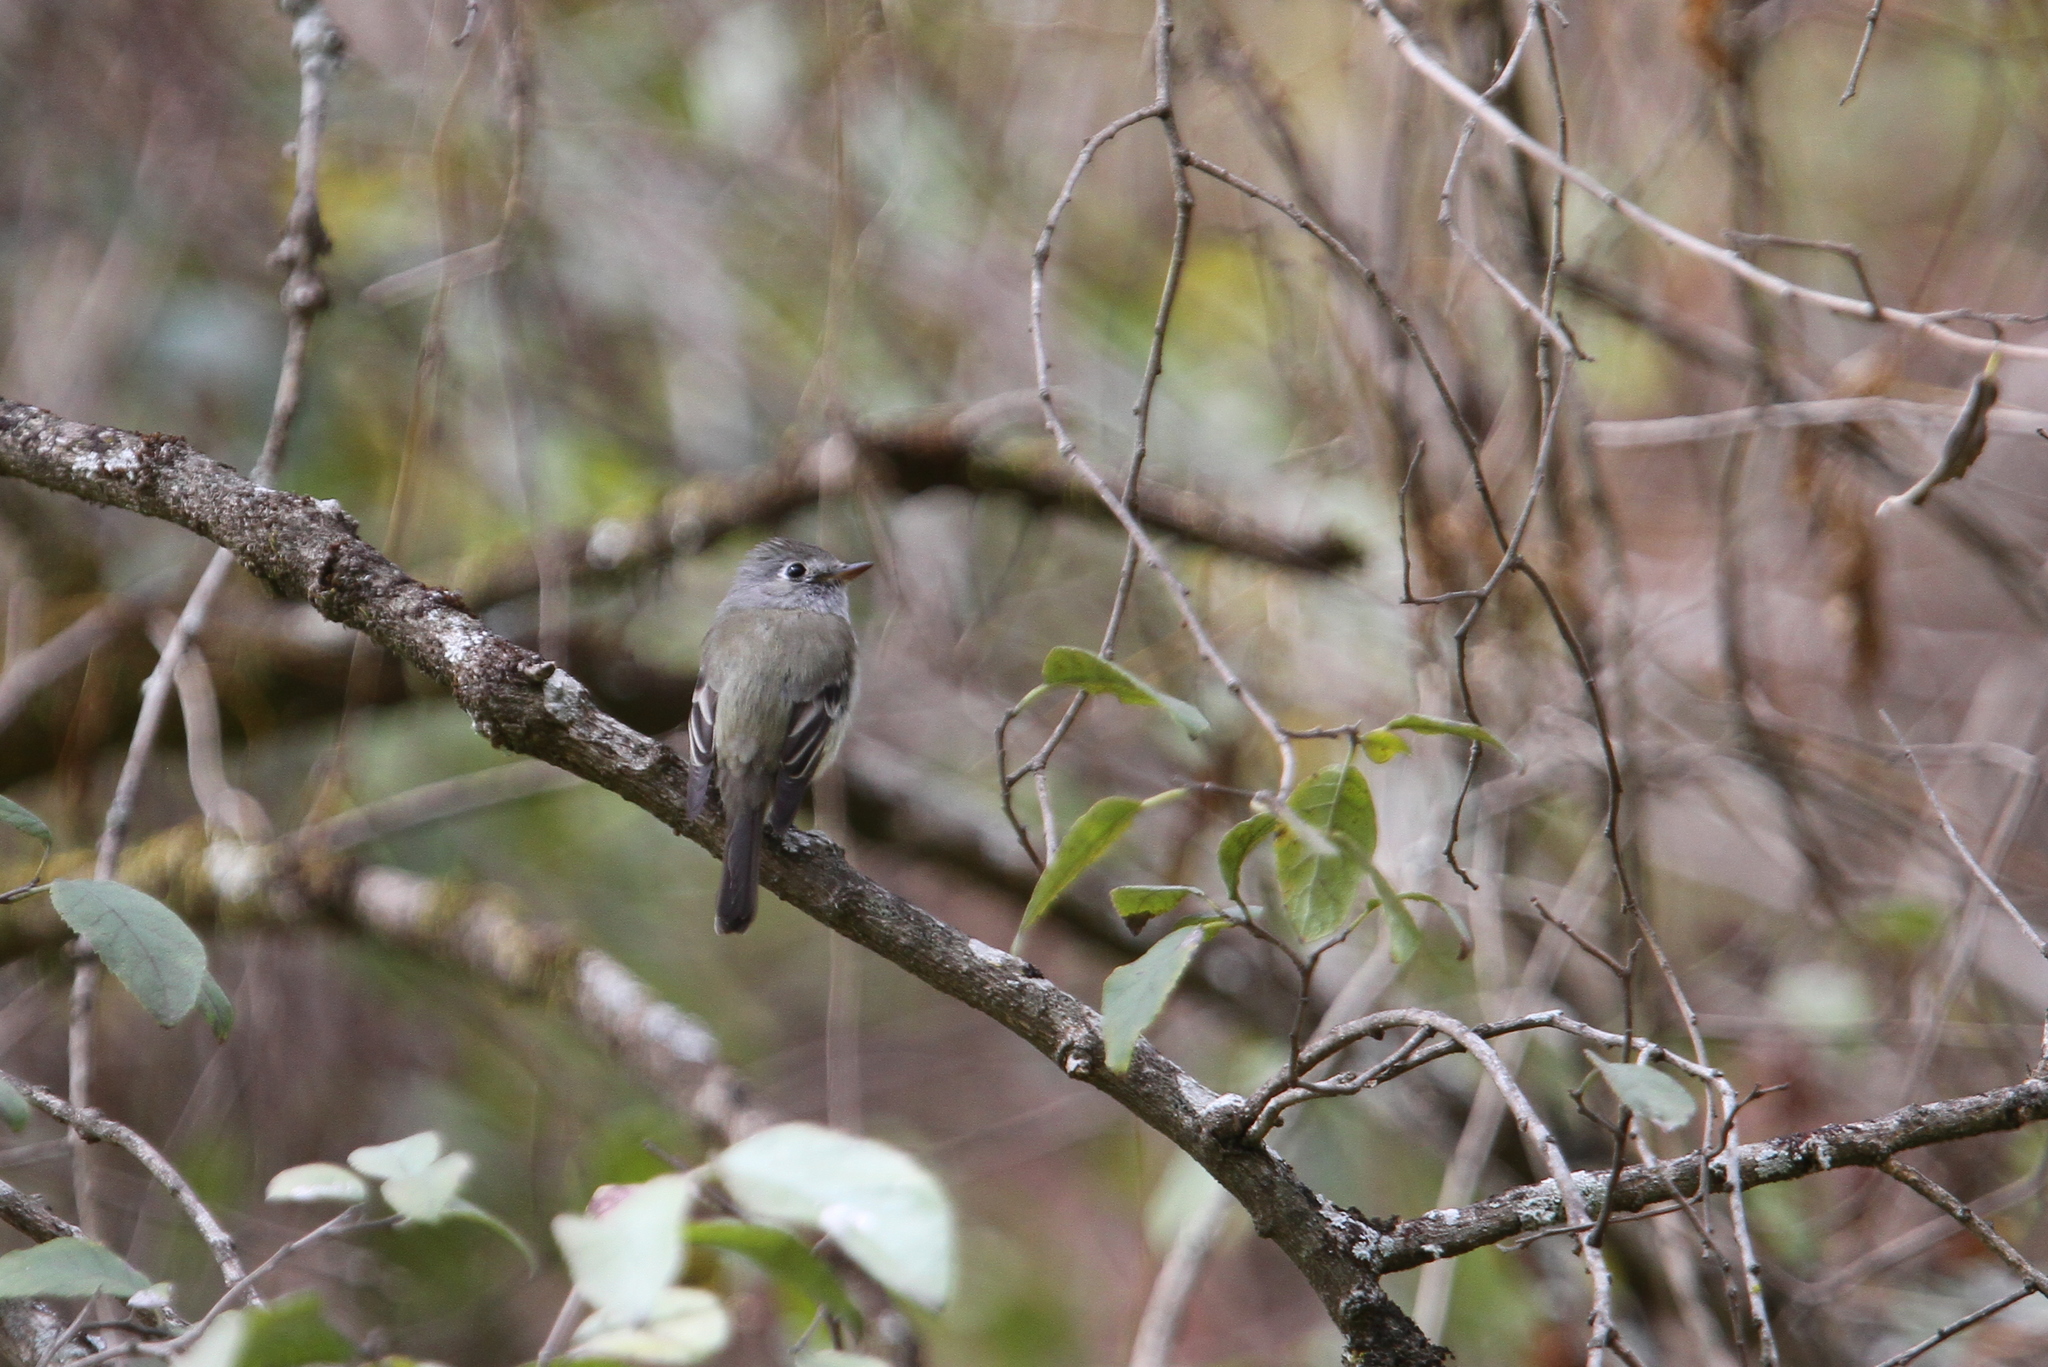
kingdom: Animalia
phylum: Chordata
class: Aves
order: Passeriformes
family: Tyrannidae
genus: Empidonax
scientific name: Empidonax hammondii
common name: Hammond's flycatcher
